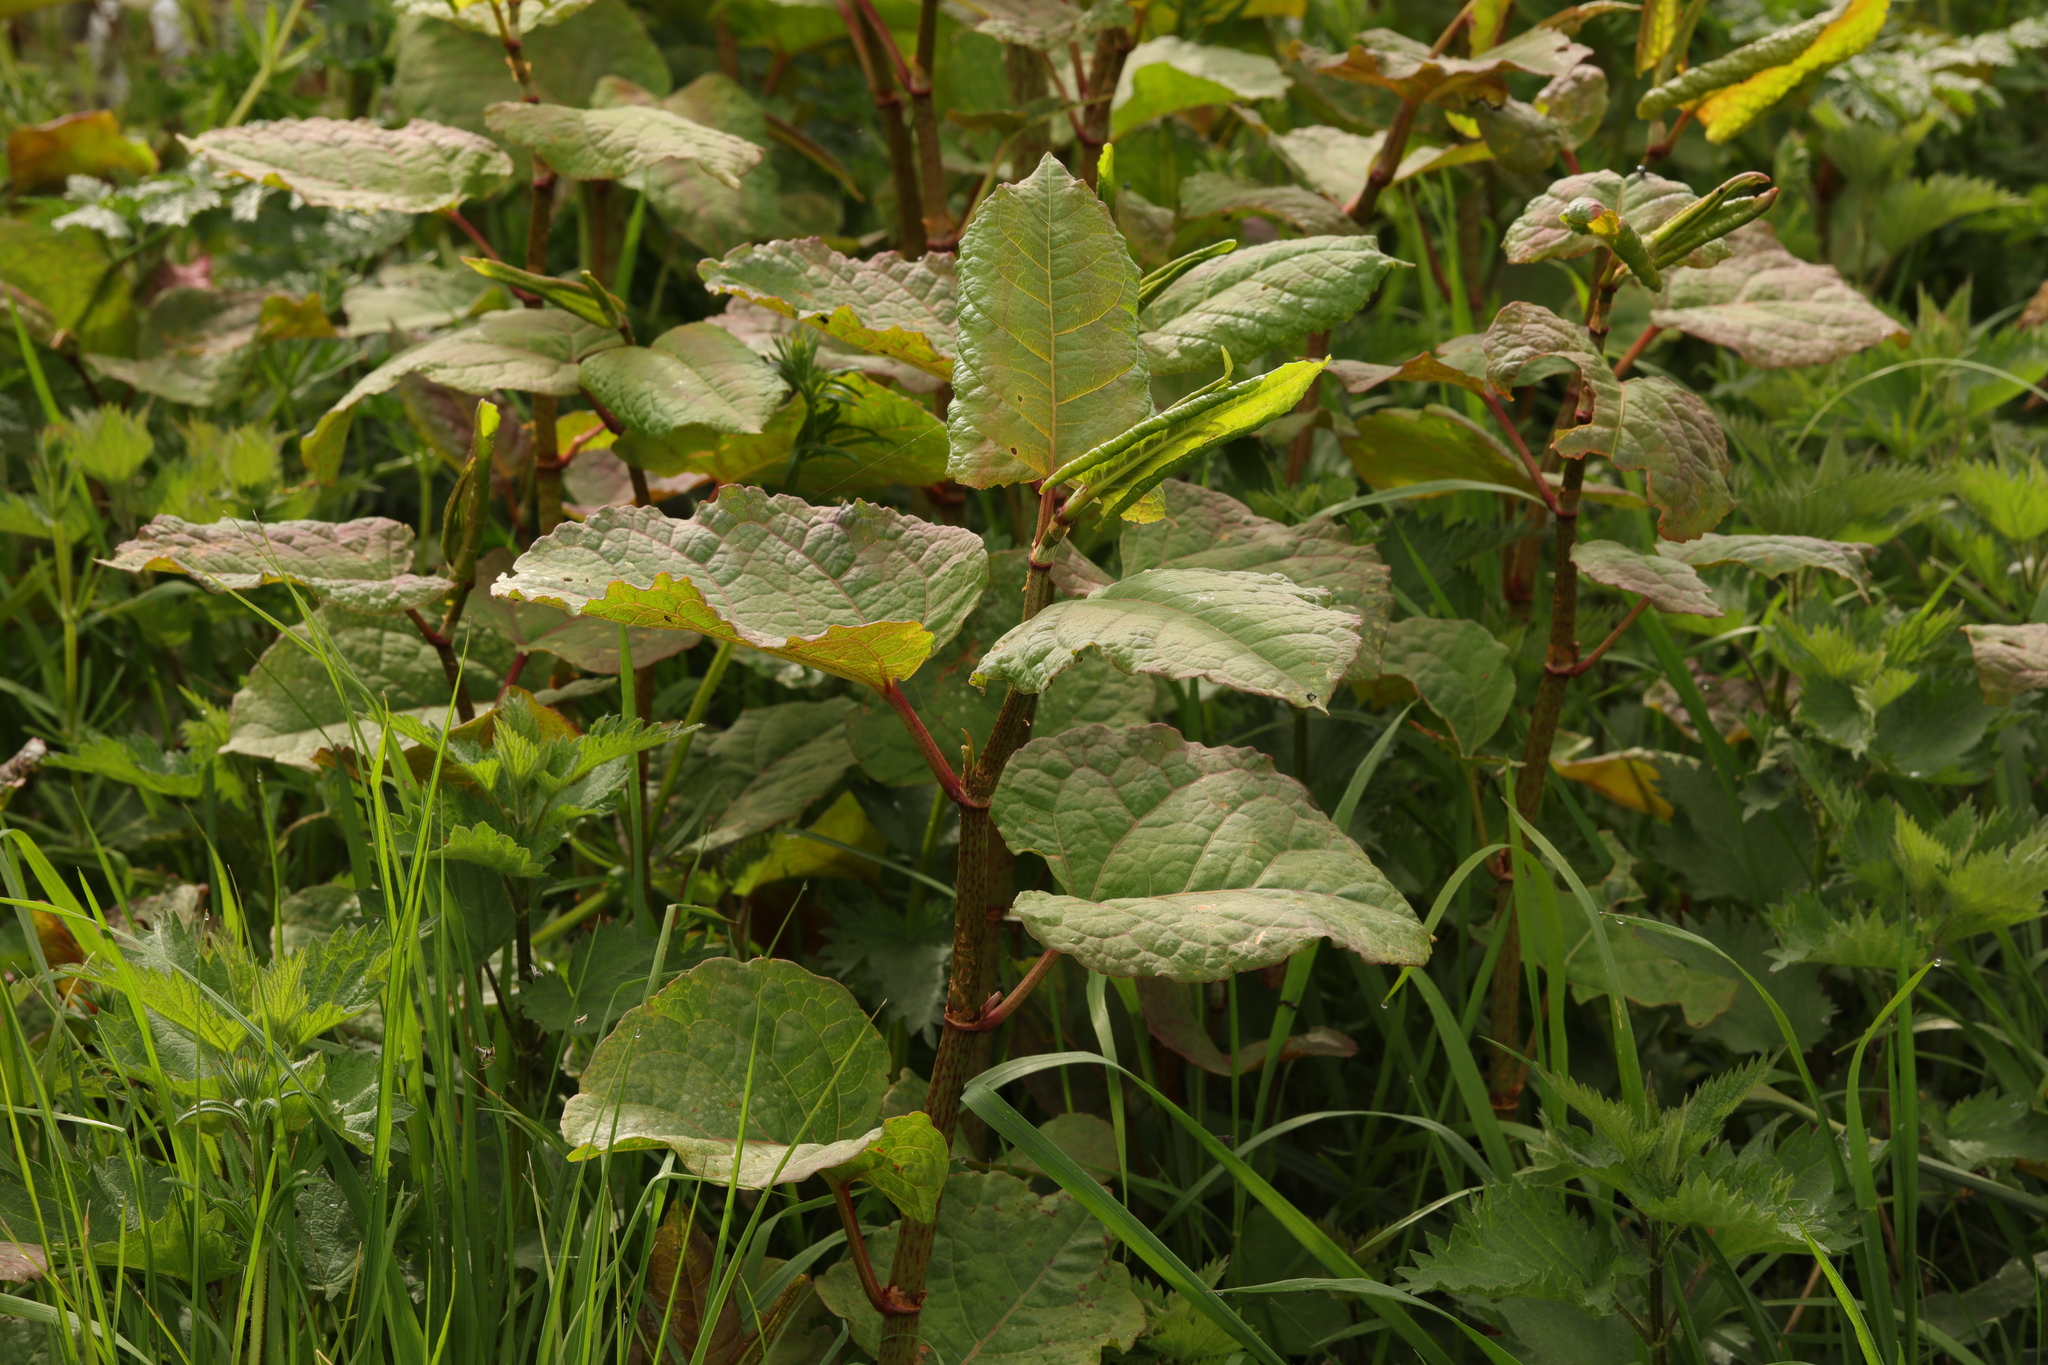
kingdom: Plantae
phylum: Tracheophyta
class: Magnoliopsida
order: Caryophyllales
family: Polygonaceae
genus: Reynoutria
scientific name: Reynoutria japonica
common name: Japanese knotweed
